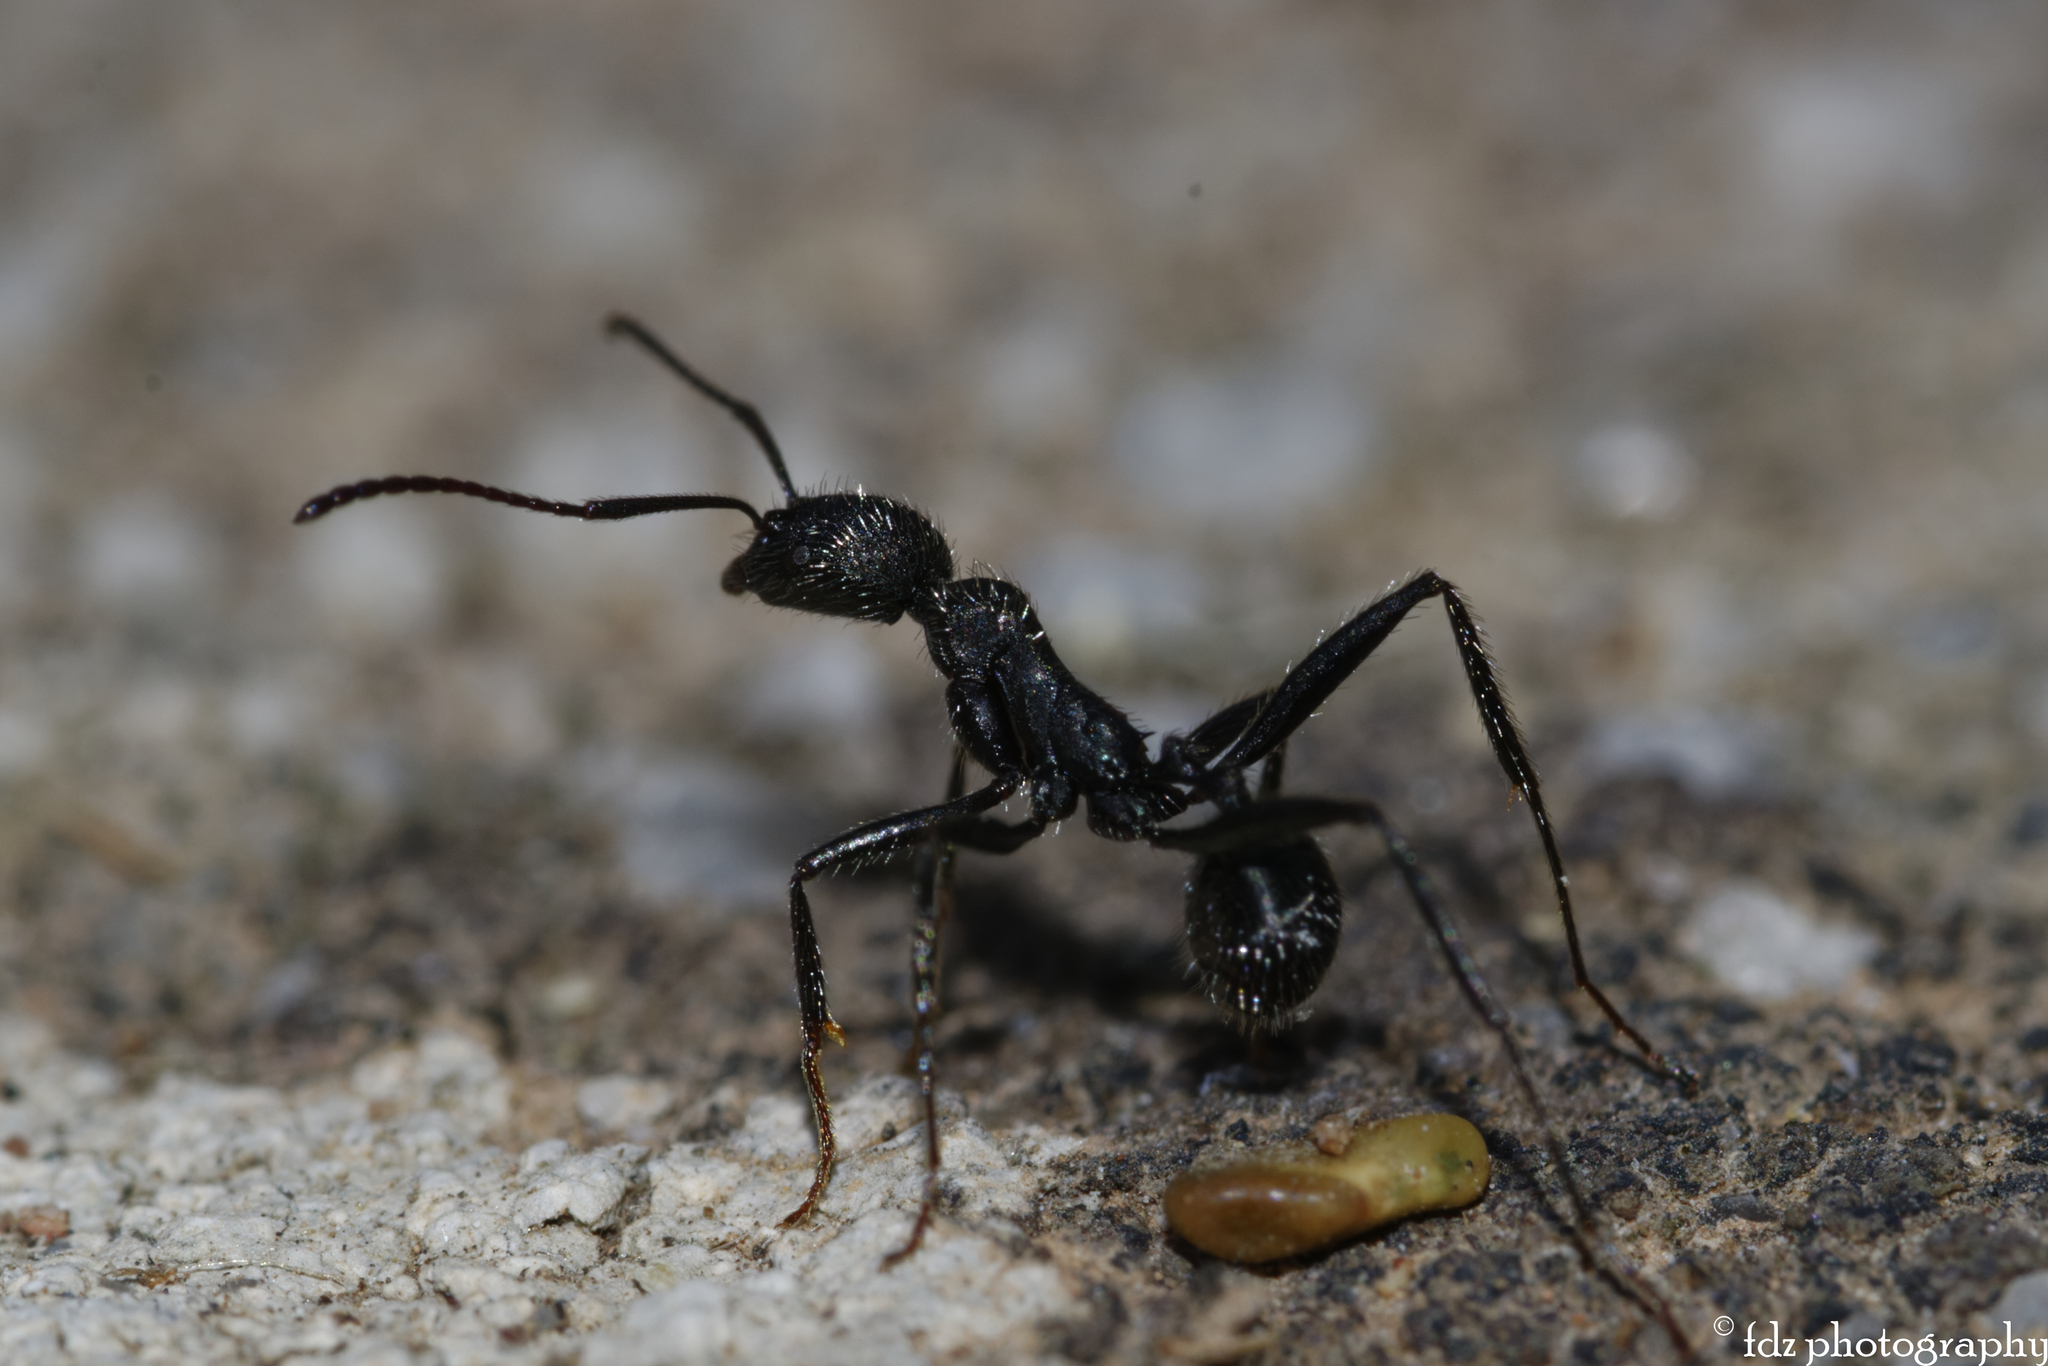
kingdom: Animalia
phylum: Arthropoda
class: Insecta
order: Hymenoptera
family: Formicidae
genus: Aphaenogaster
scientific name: Aphaenogaster senilis
